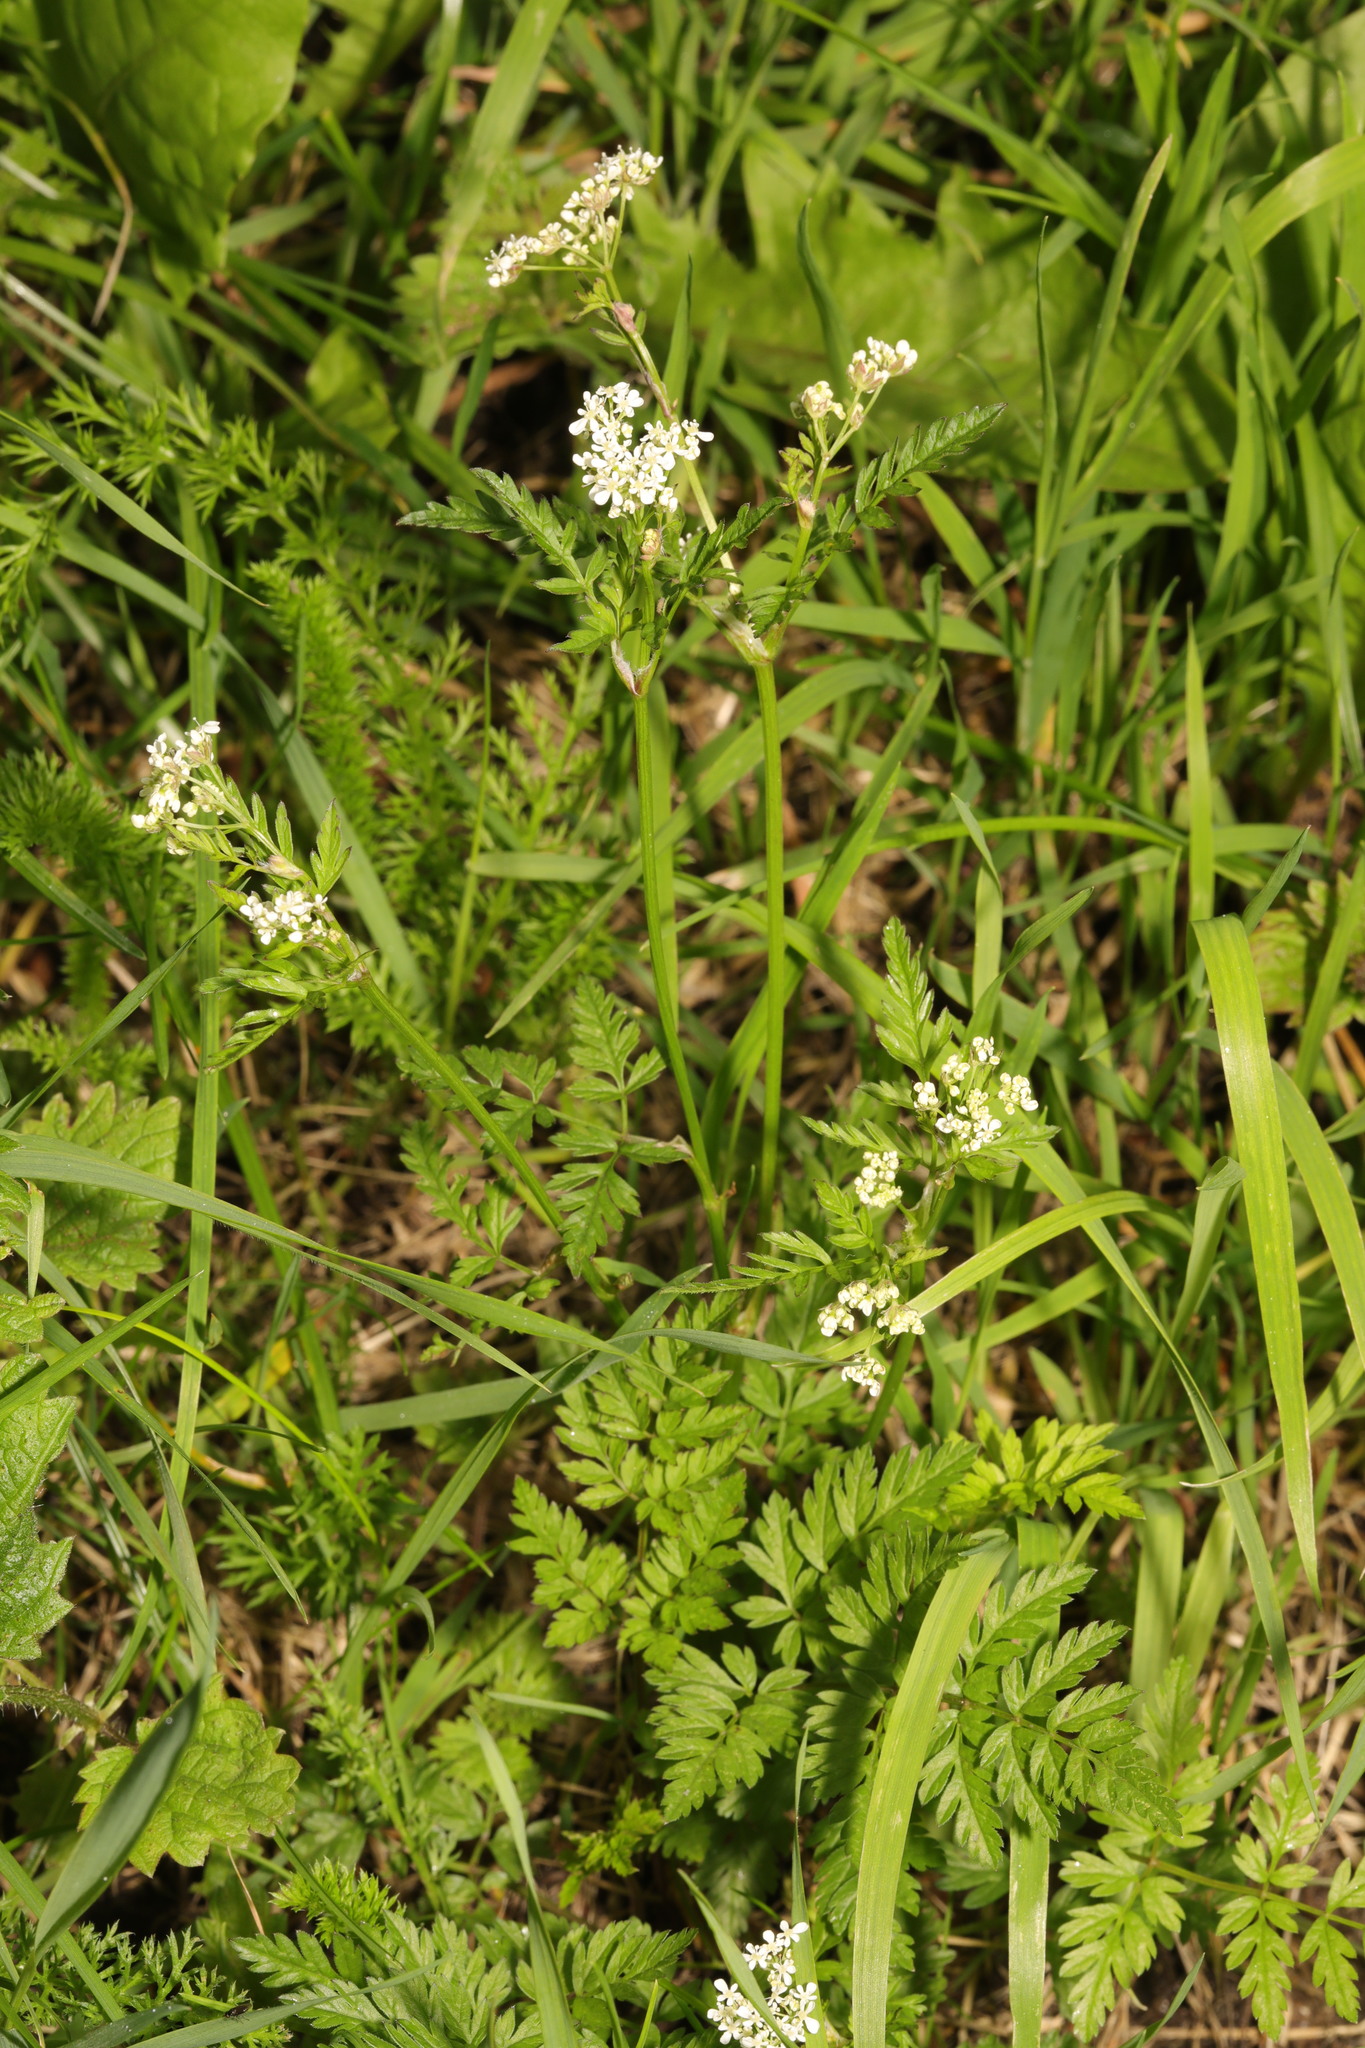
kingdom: Plantae
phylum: Tracheophyta
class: Magnoliopsida
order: Apiales
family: Apiaceae
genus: Anthriscus
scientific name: Anthriscus sylvestris
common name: Cow parsley
